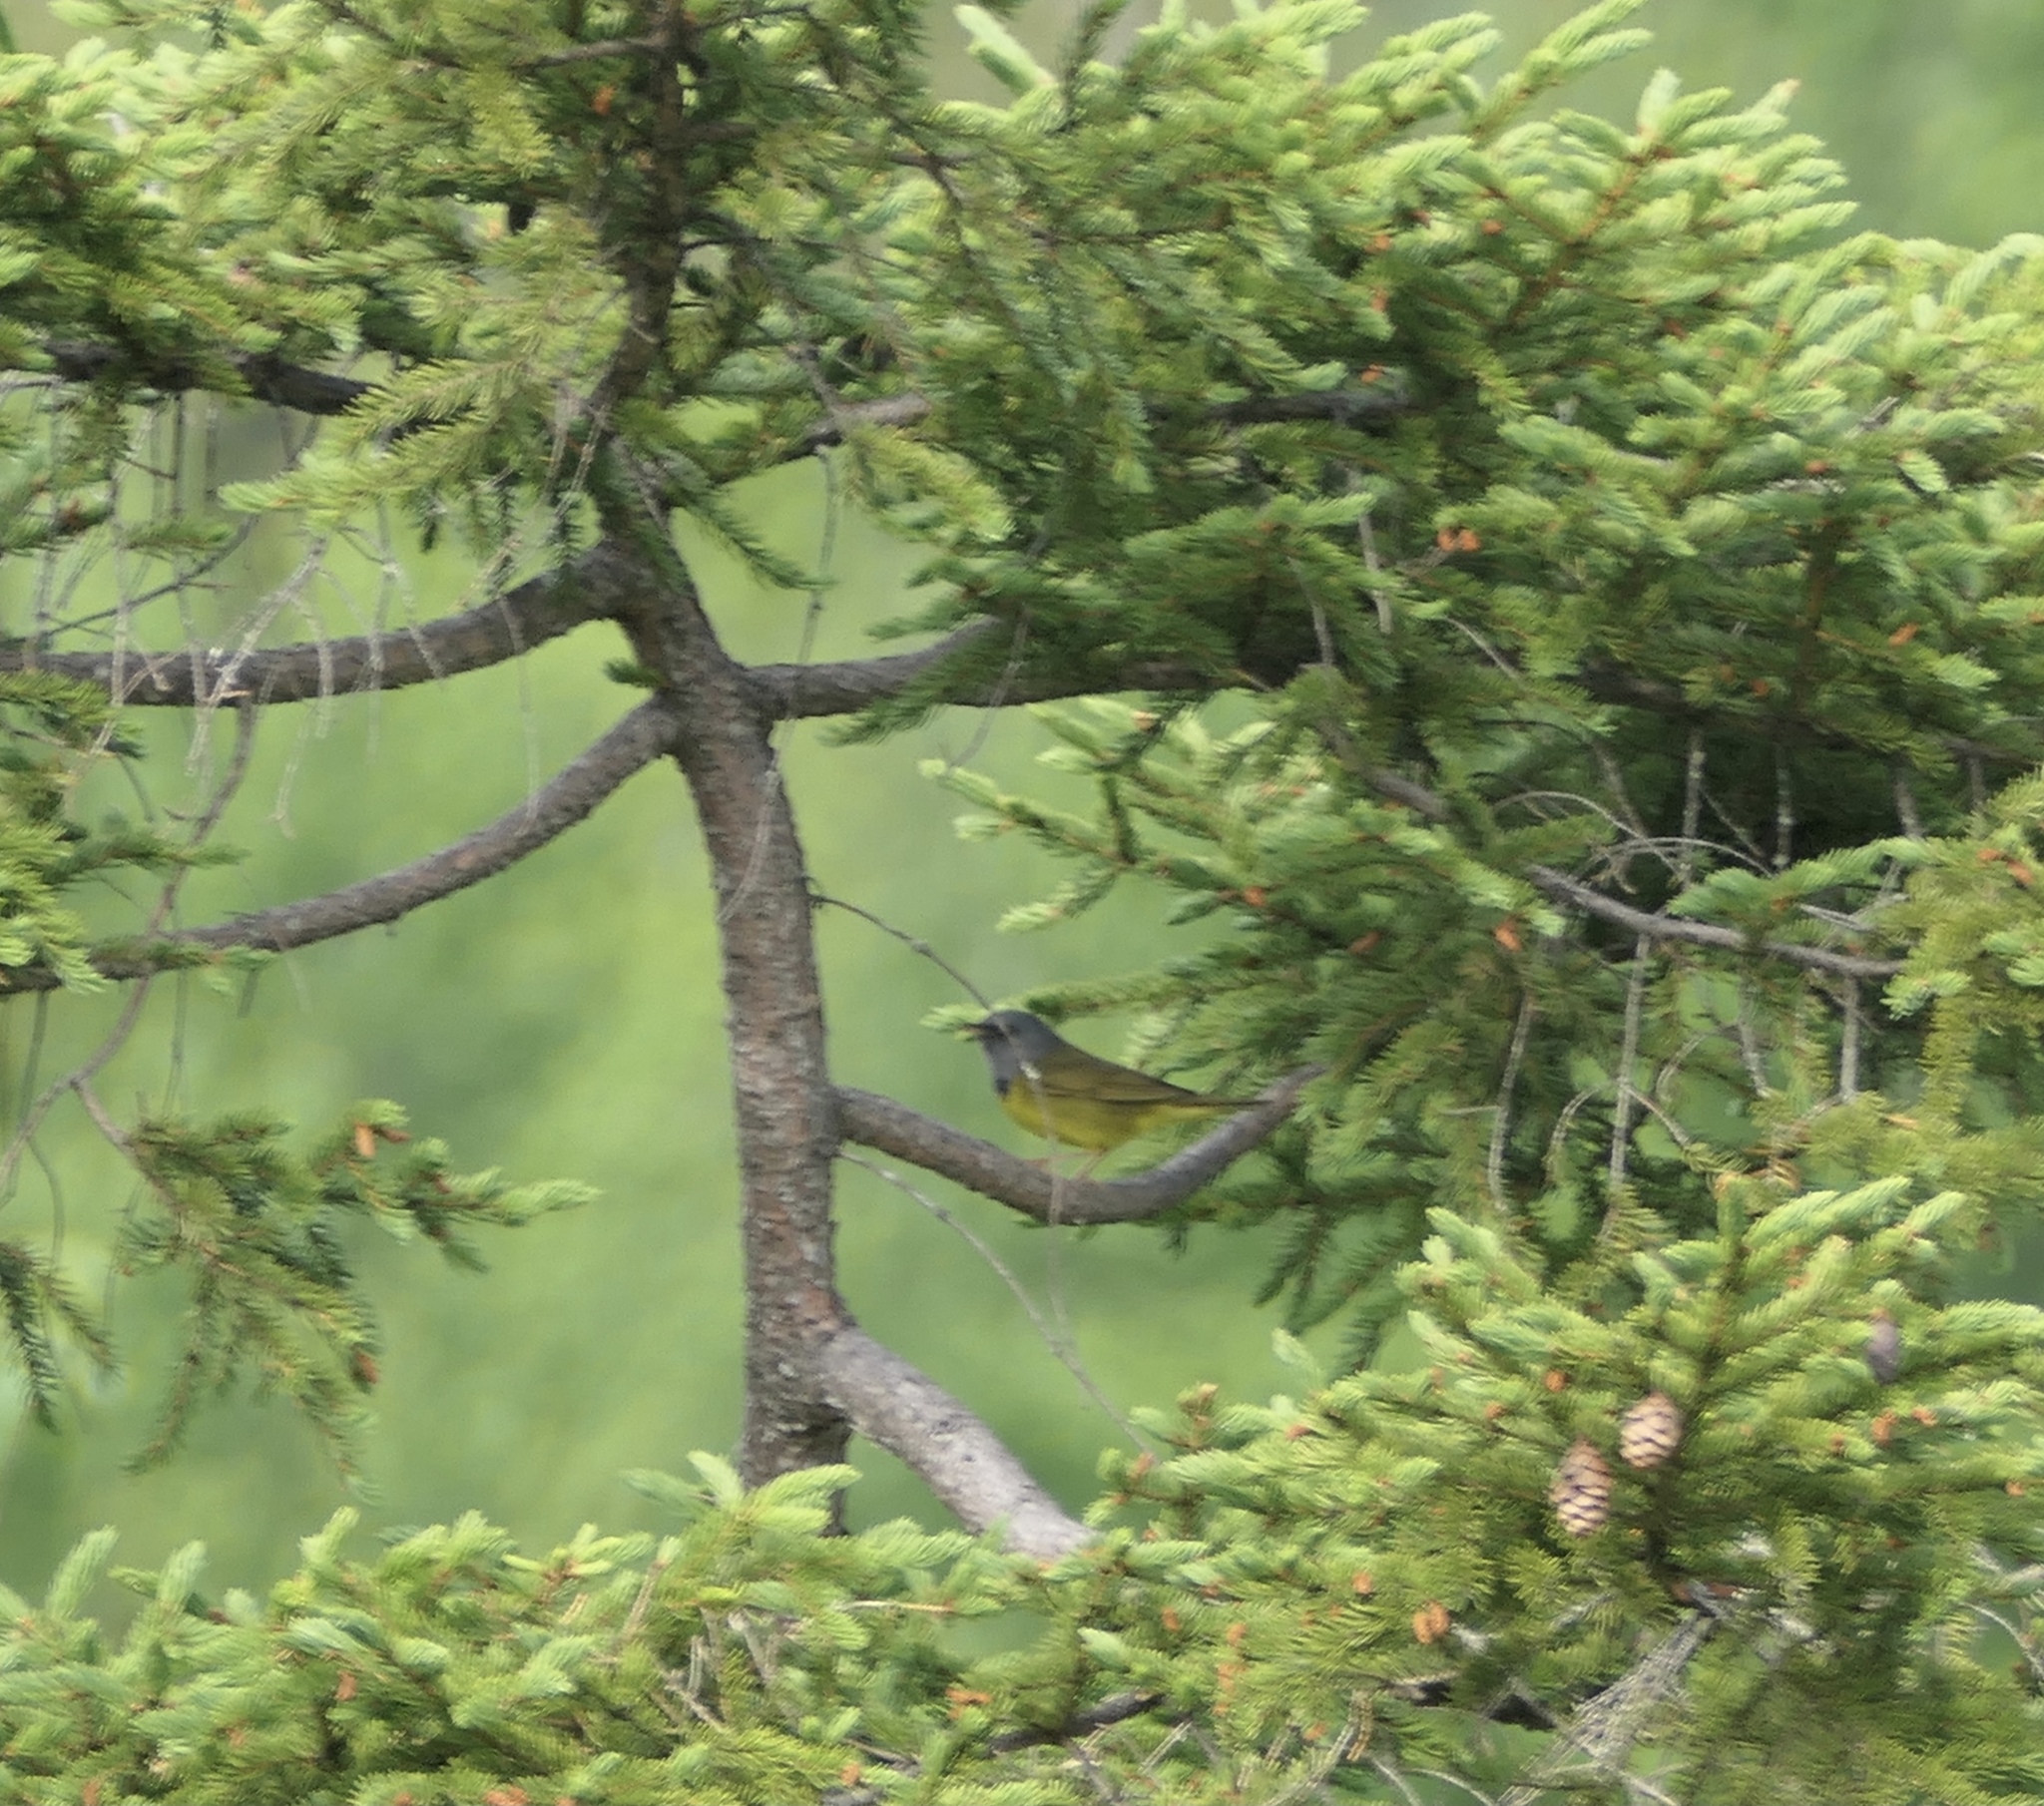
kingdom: Animalia
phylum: Chordata
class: Aves
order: Passeriformes
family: Parulidae
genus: Geothlypis
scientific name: Geothlypis philadelphia
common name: Mourning warbler
